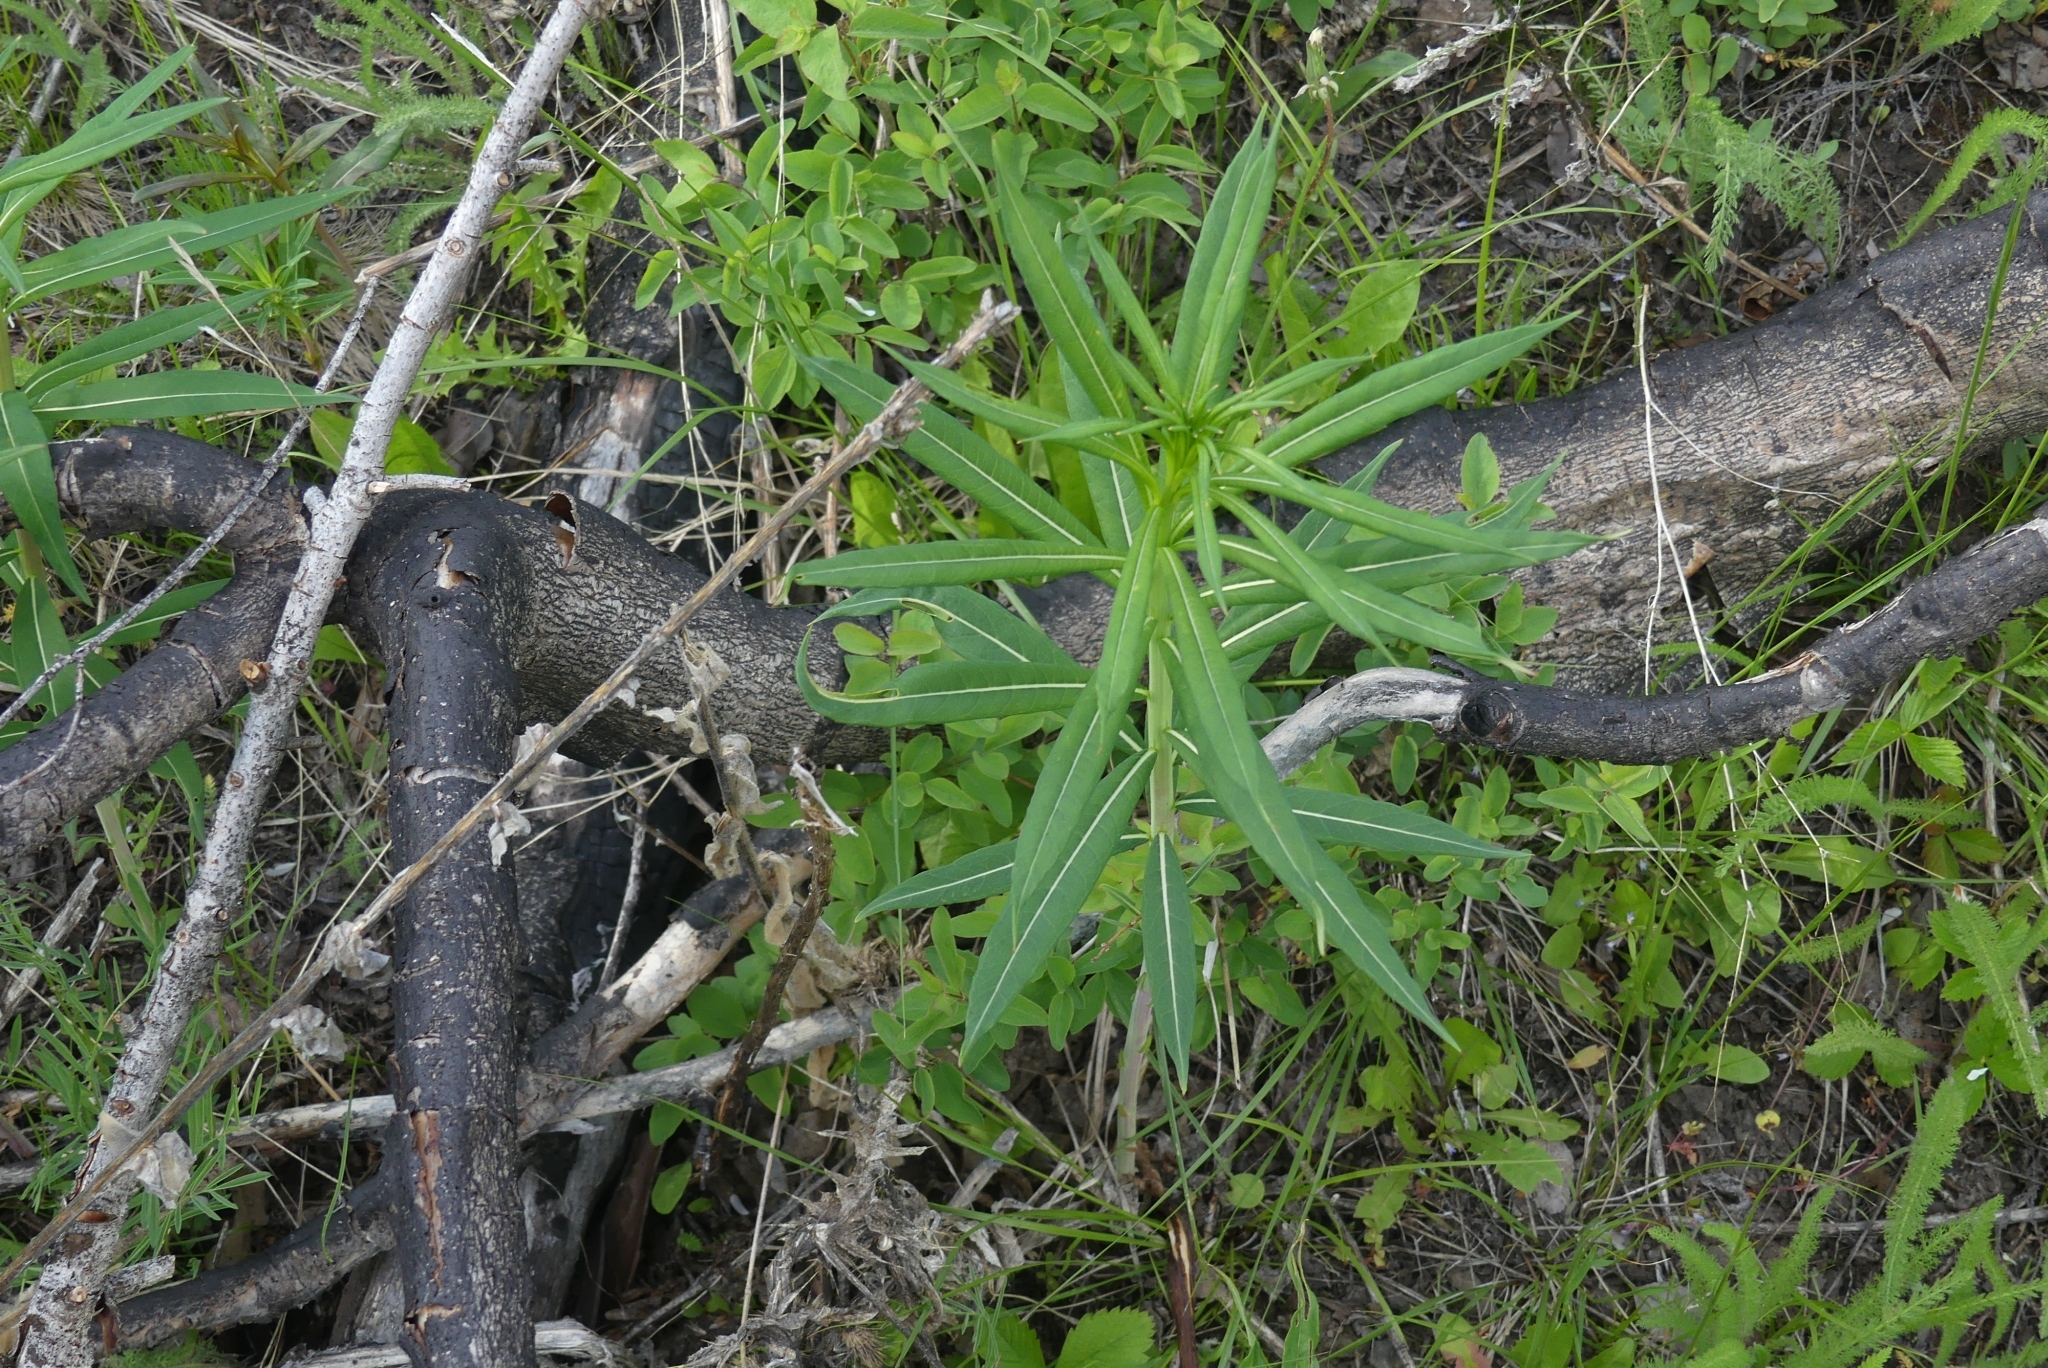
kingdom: Plantae
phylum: Tracheophyta
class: Magnoliopsida
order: Myrtales
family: Onagraceae
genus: Chamaenerion
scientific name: Chamaenerion angustifolium
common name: Fireweed
